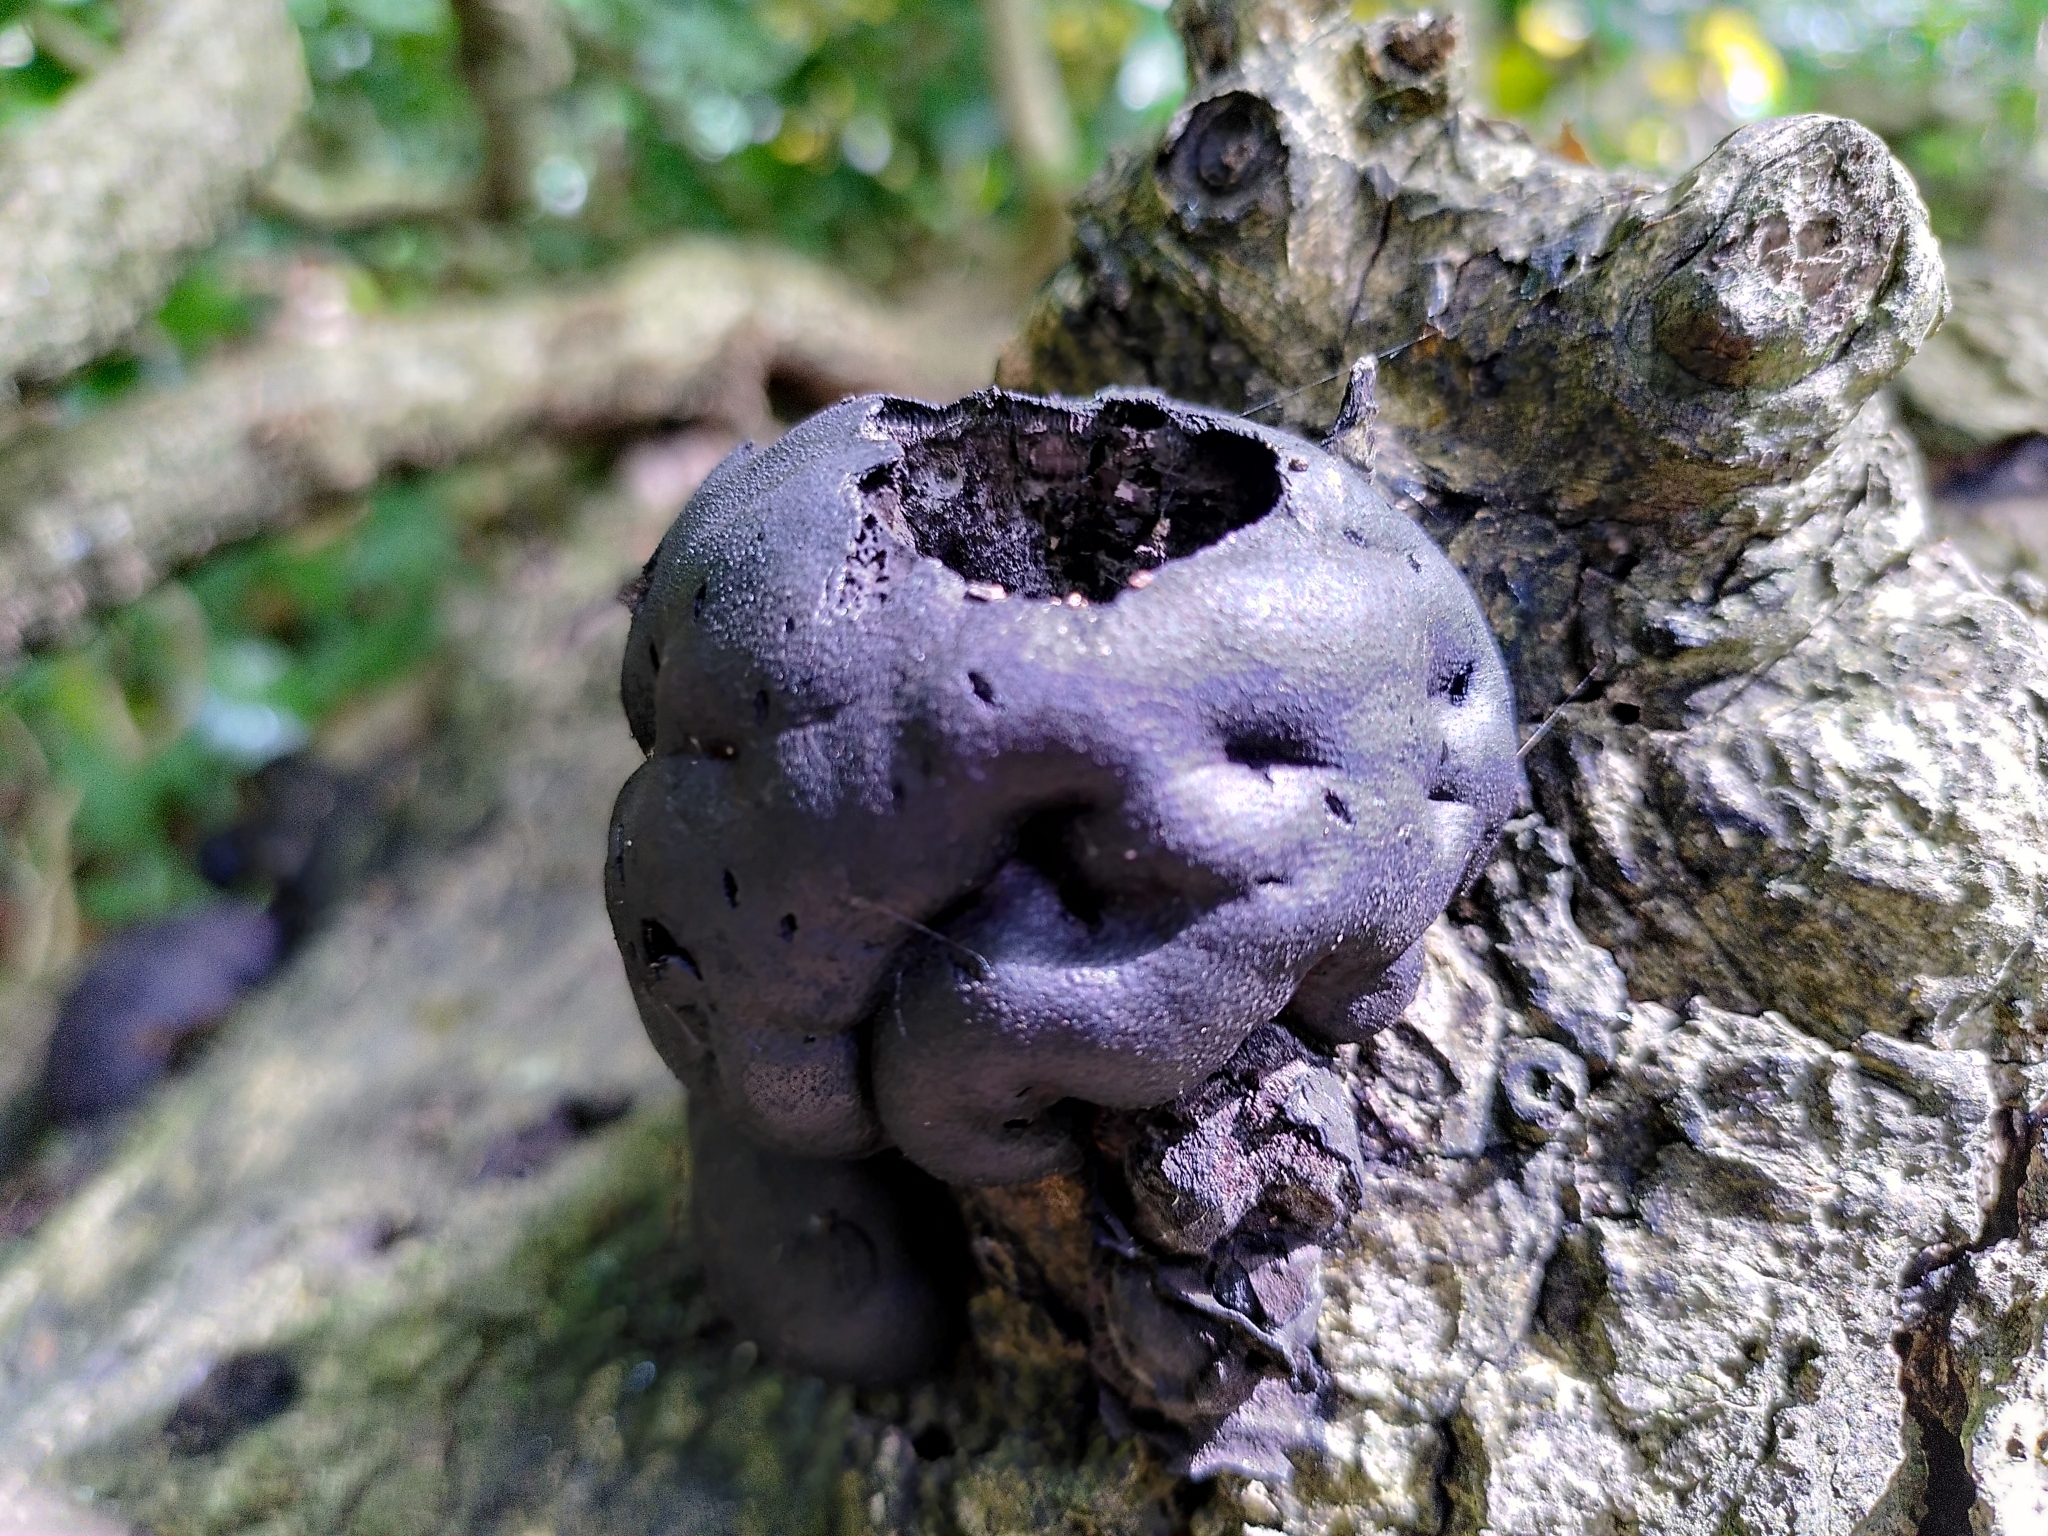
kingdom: Fungi
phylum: Ascomycota
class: Sordariomycetes
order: Xylariales
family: Hypoxylaceae
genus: Daldinia
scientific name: Daldinia concentrica
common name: Cramp balls
